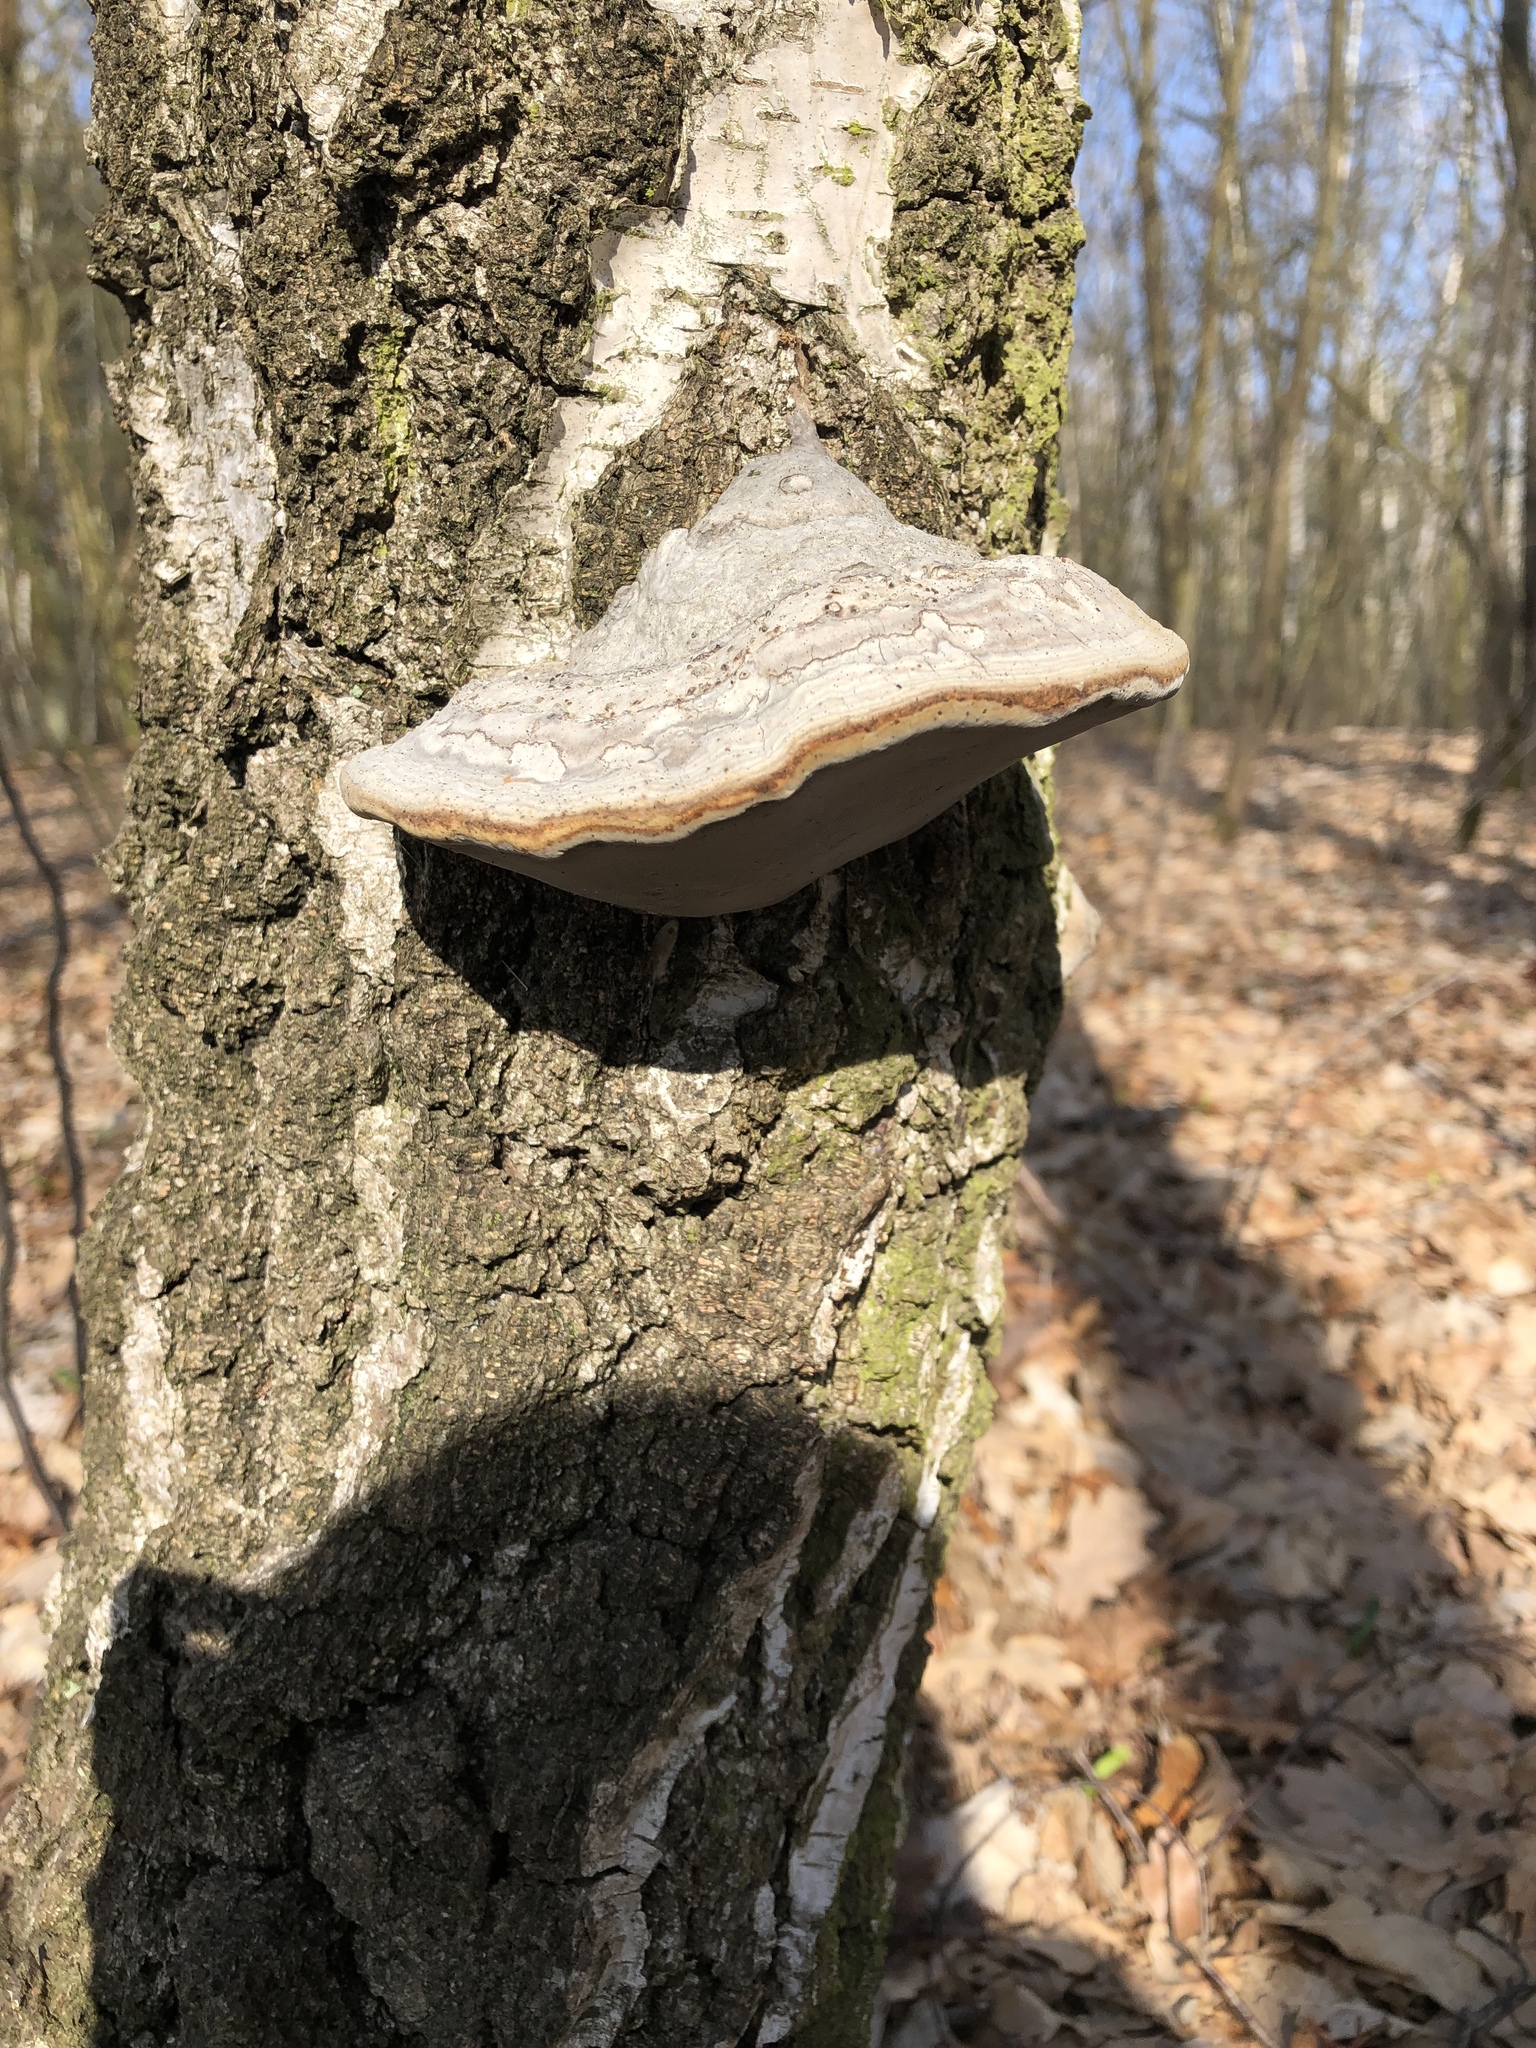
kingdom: Fungi
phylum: Basidiomycota
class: Agaricomycetes
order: Polyporales
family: Polyporaceae
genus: Fomes
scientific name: Fomes fomentarius
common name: Hoof fungus
